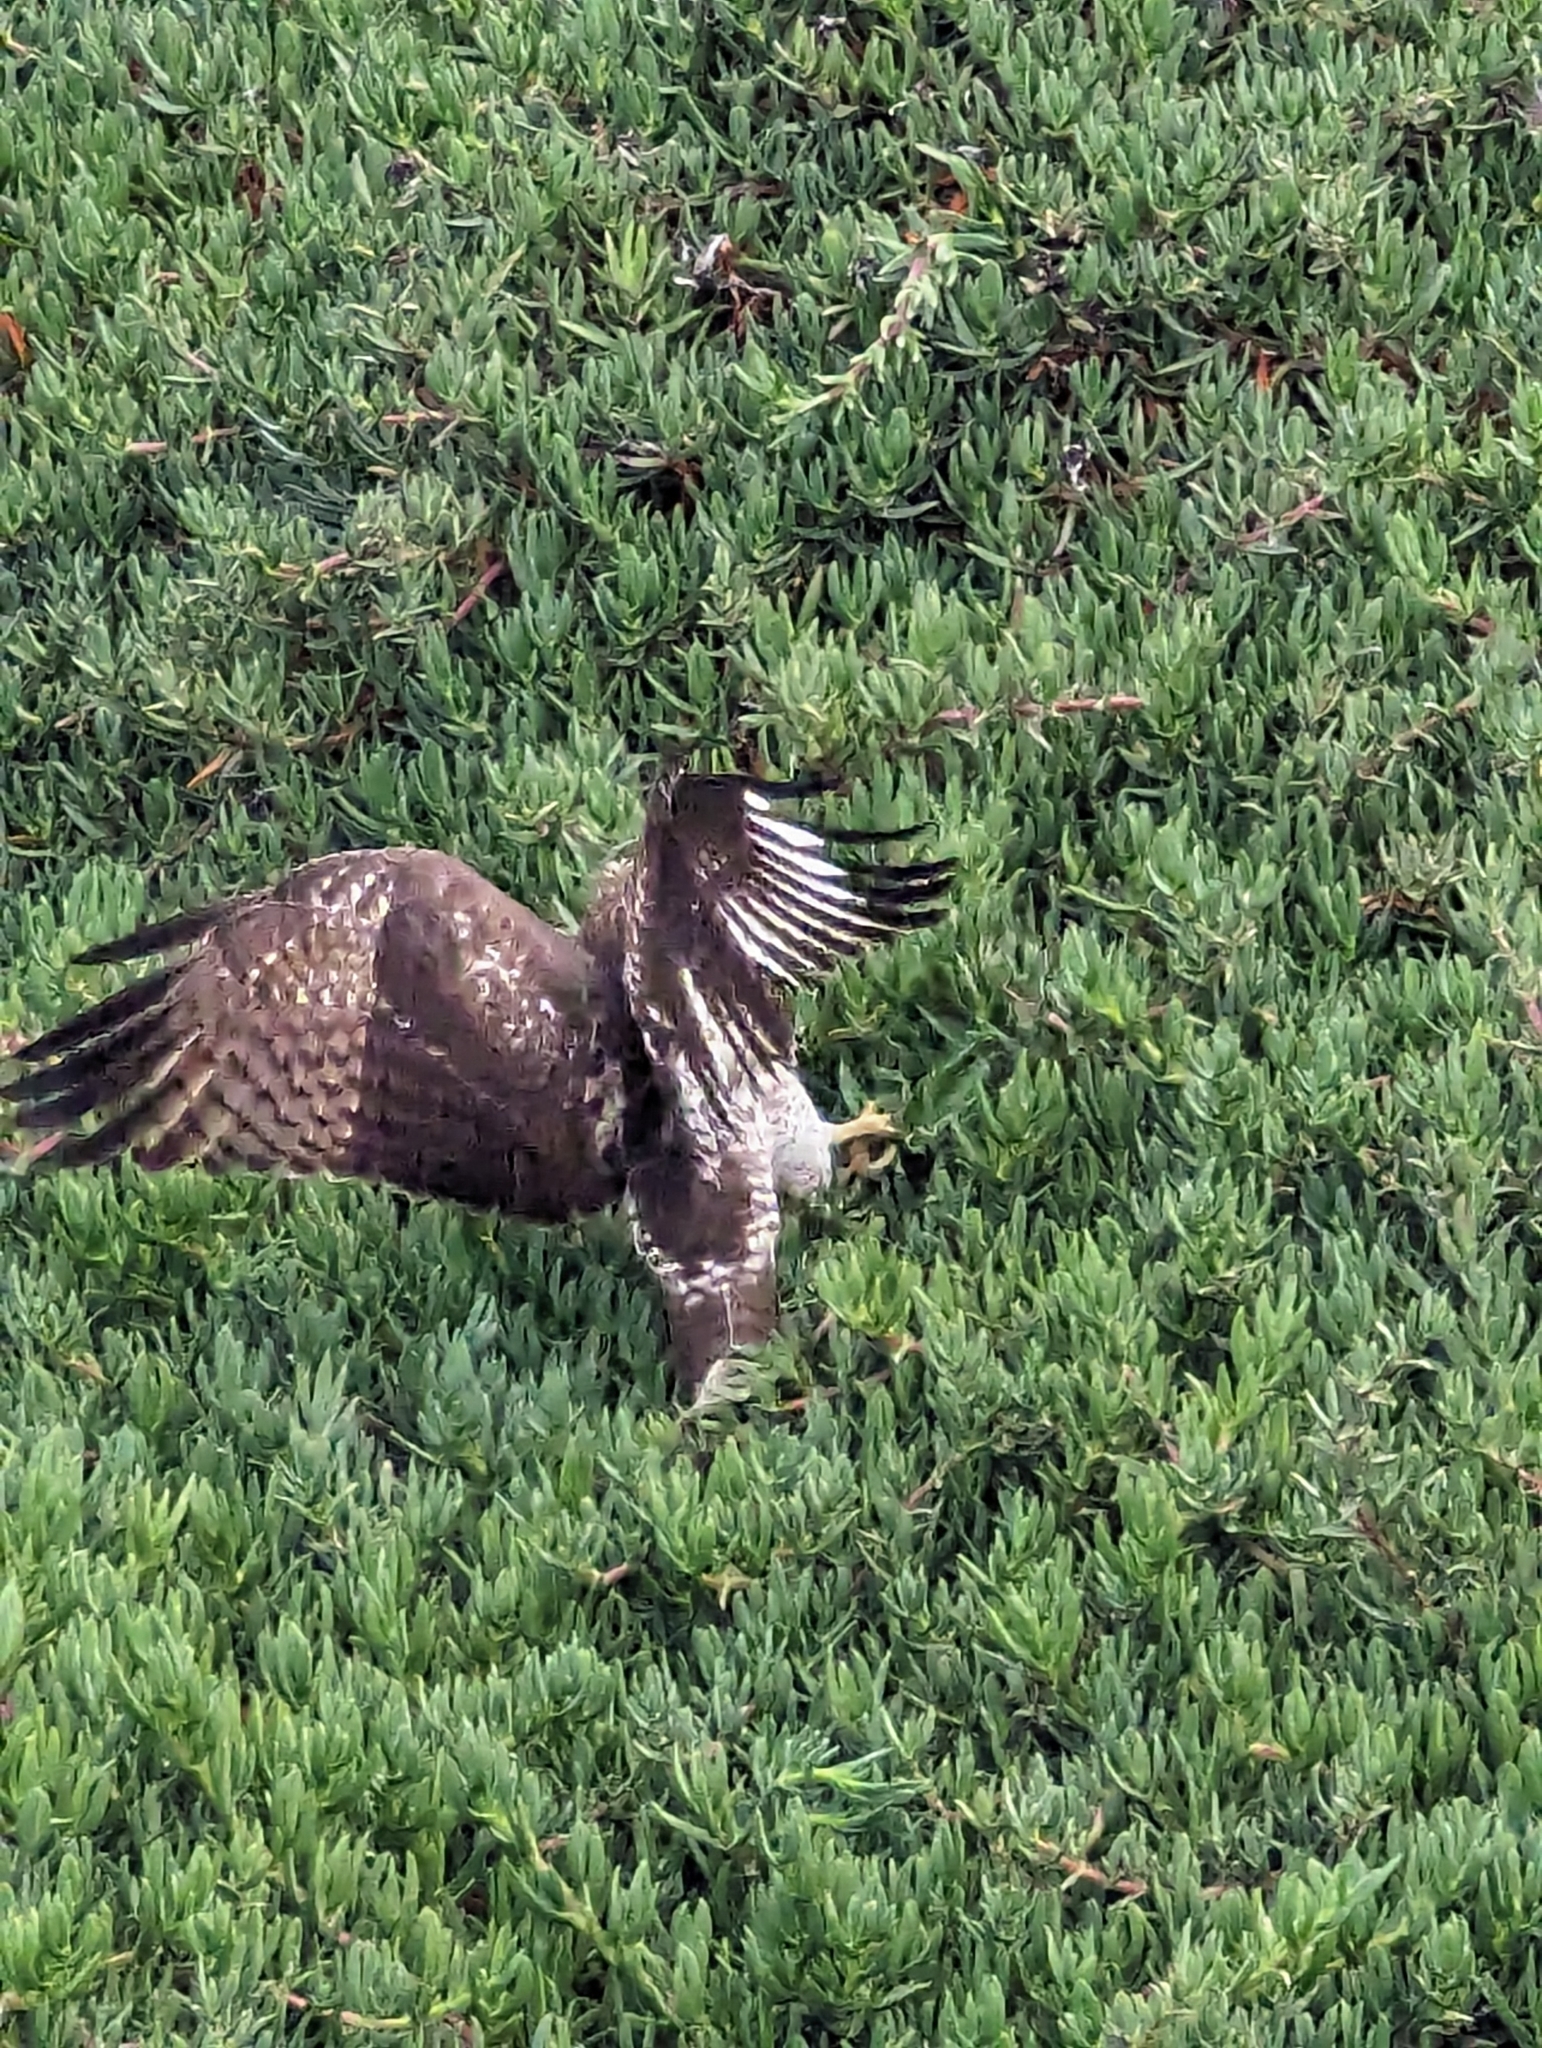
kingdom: Animalia
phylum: Chordata
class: Aves
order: Accipitriformes
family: Accipitridae
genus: Buteo
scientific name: Buteo jamaicensis
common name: Red-tailed hawk
